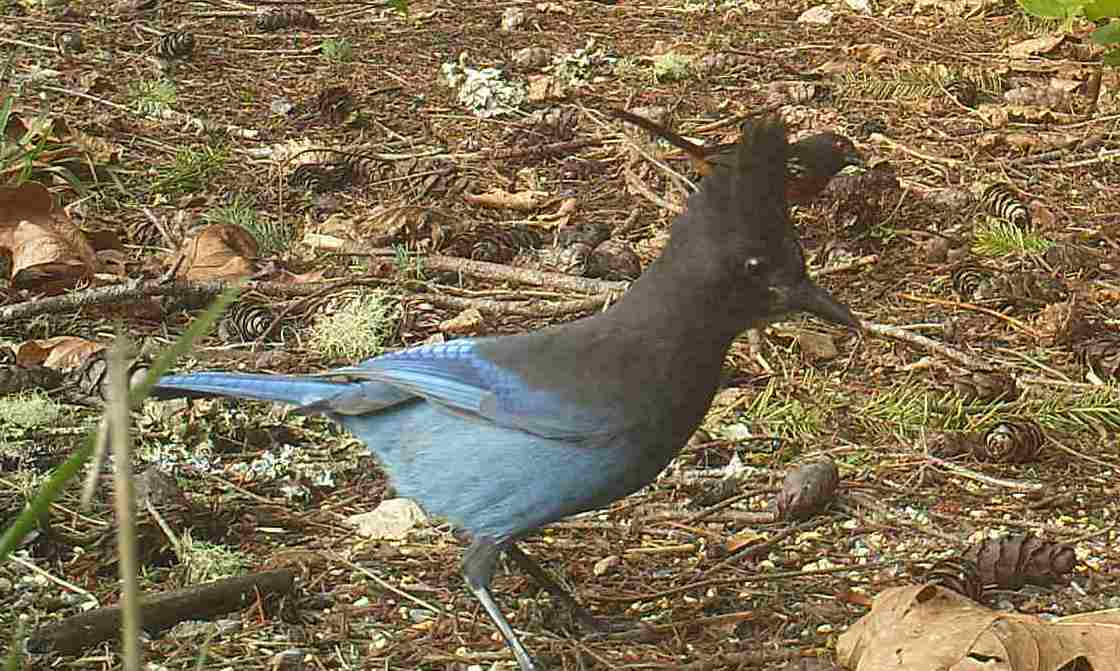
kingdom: Animalia
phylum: Chordata
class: Aves
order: Passeriformes
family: Corvidae
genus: Cyanocitta
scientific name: Cyanocitta stelleri
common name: Steller's jay
